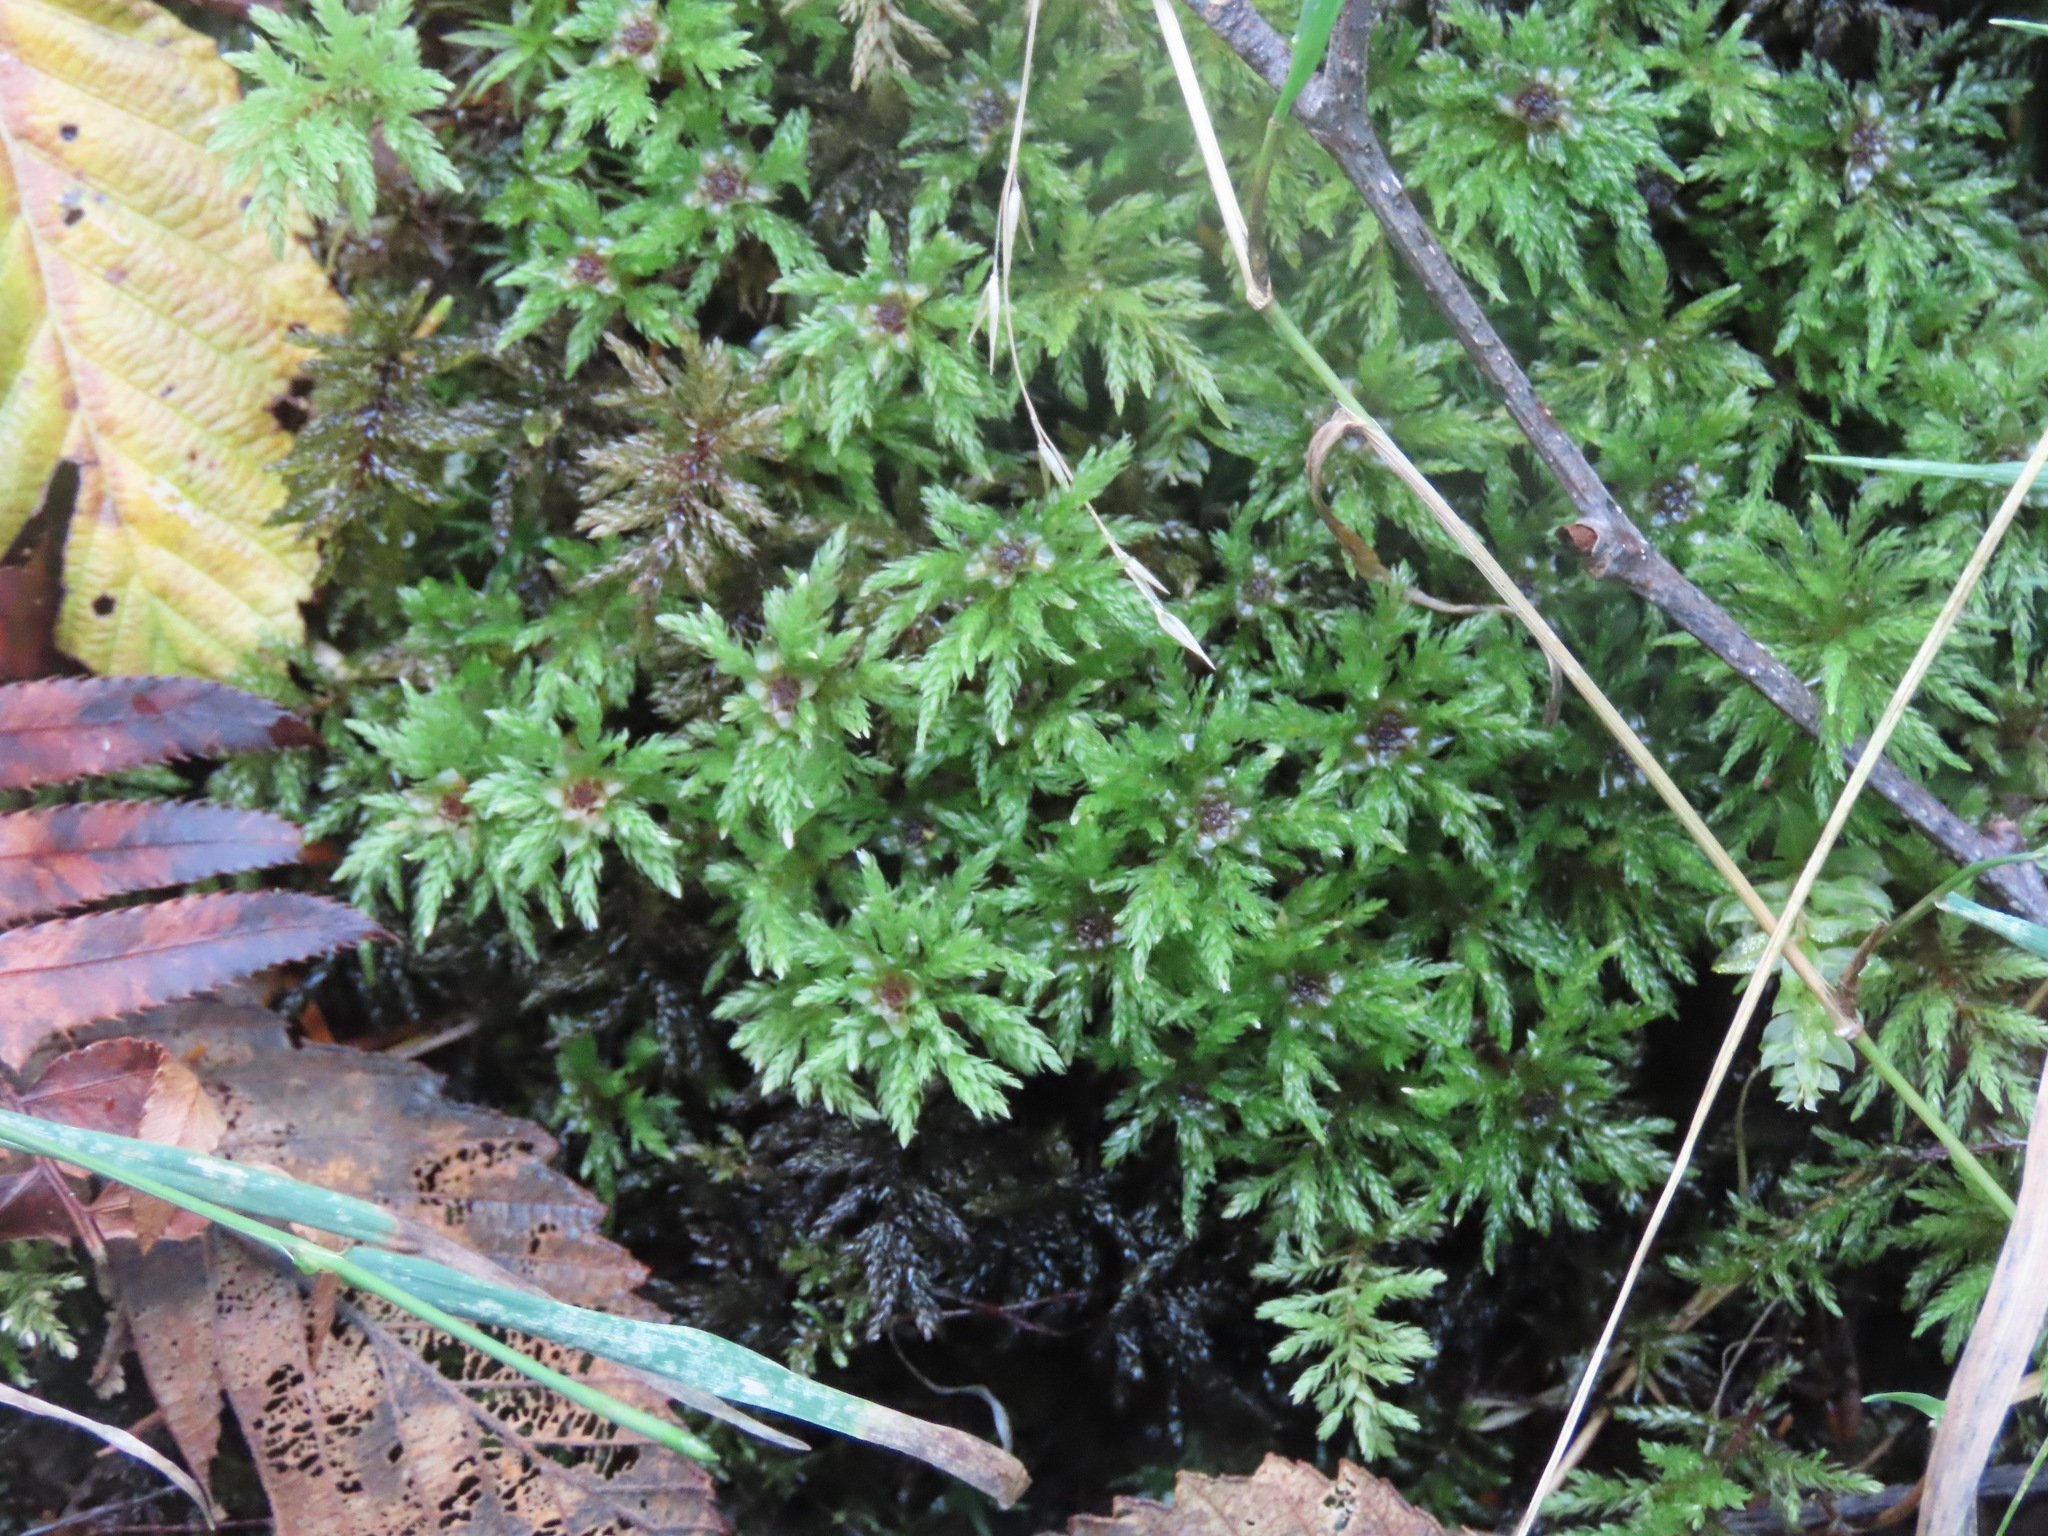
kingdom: Plantae
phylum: Bryophyta
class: Bryopsida
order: Bryales
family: Mniaceae
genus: Leucolepis
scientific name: Leucolepis acanthoneura
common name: Leucolepis umbrella moss
